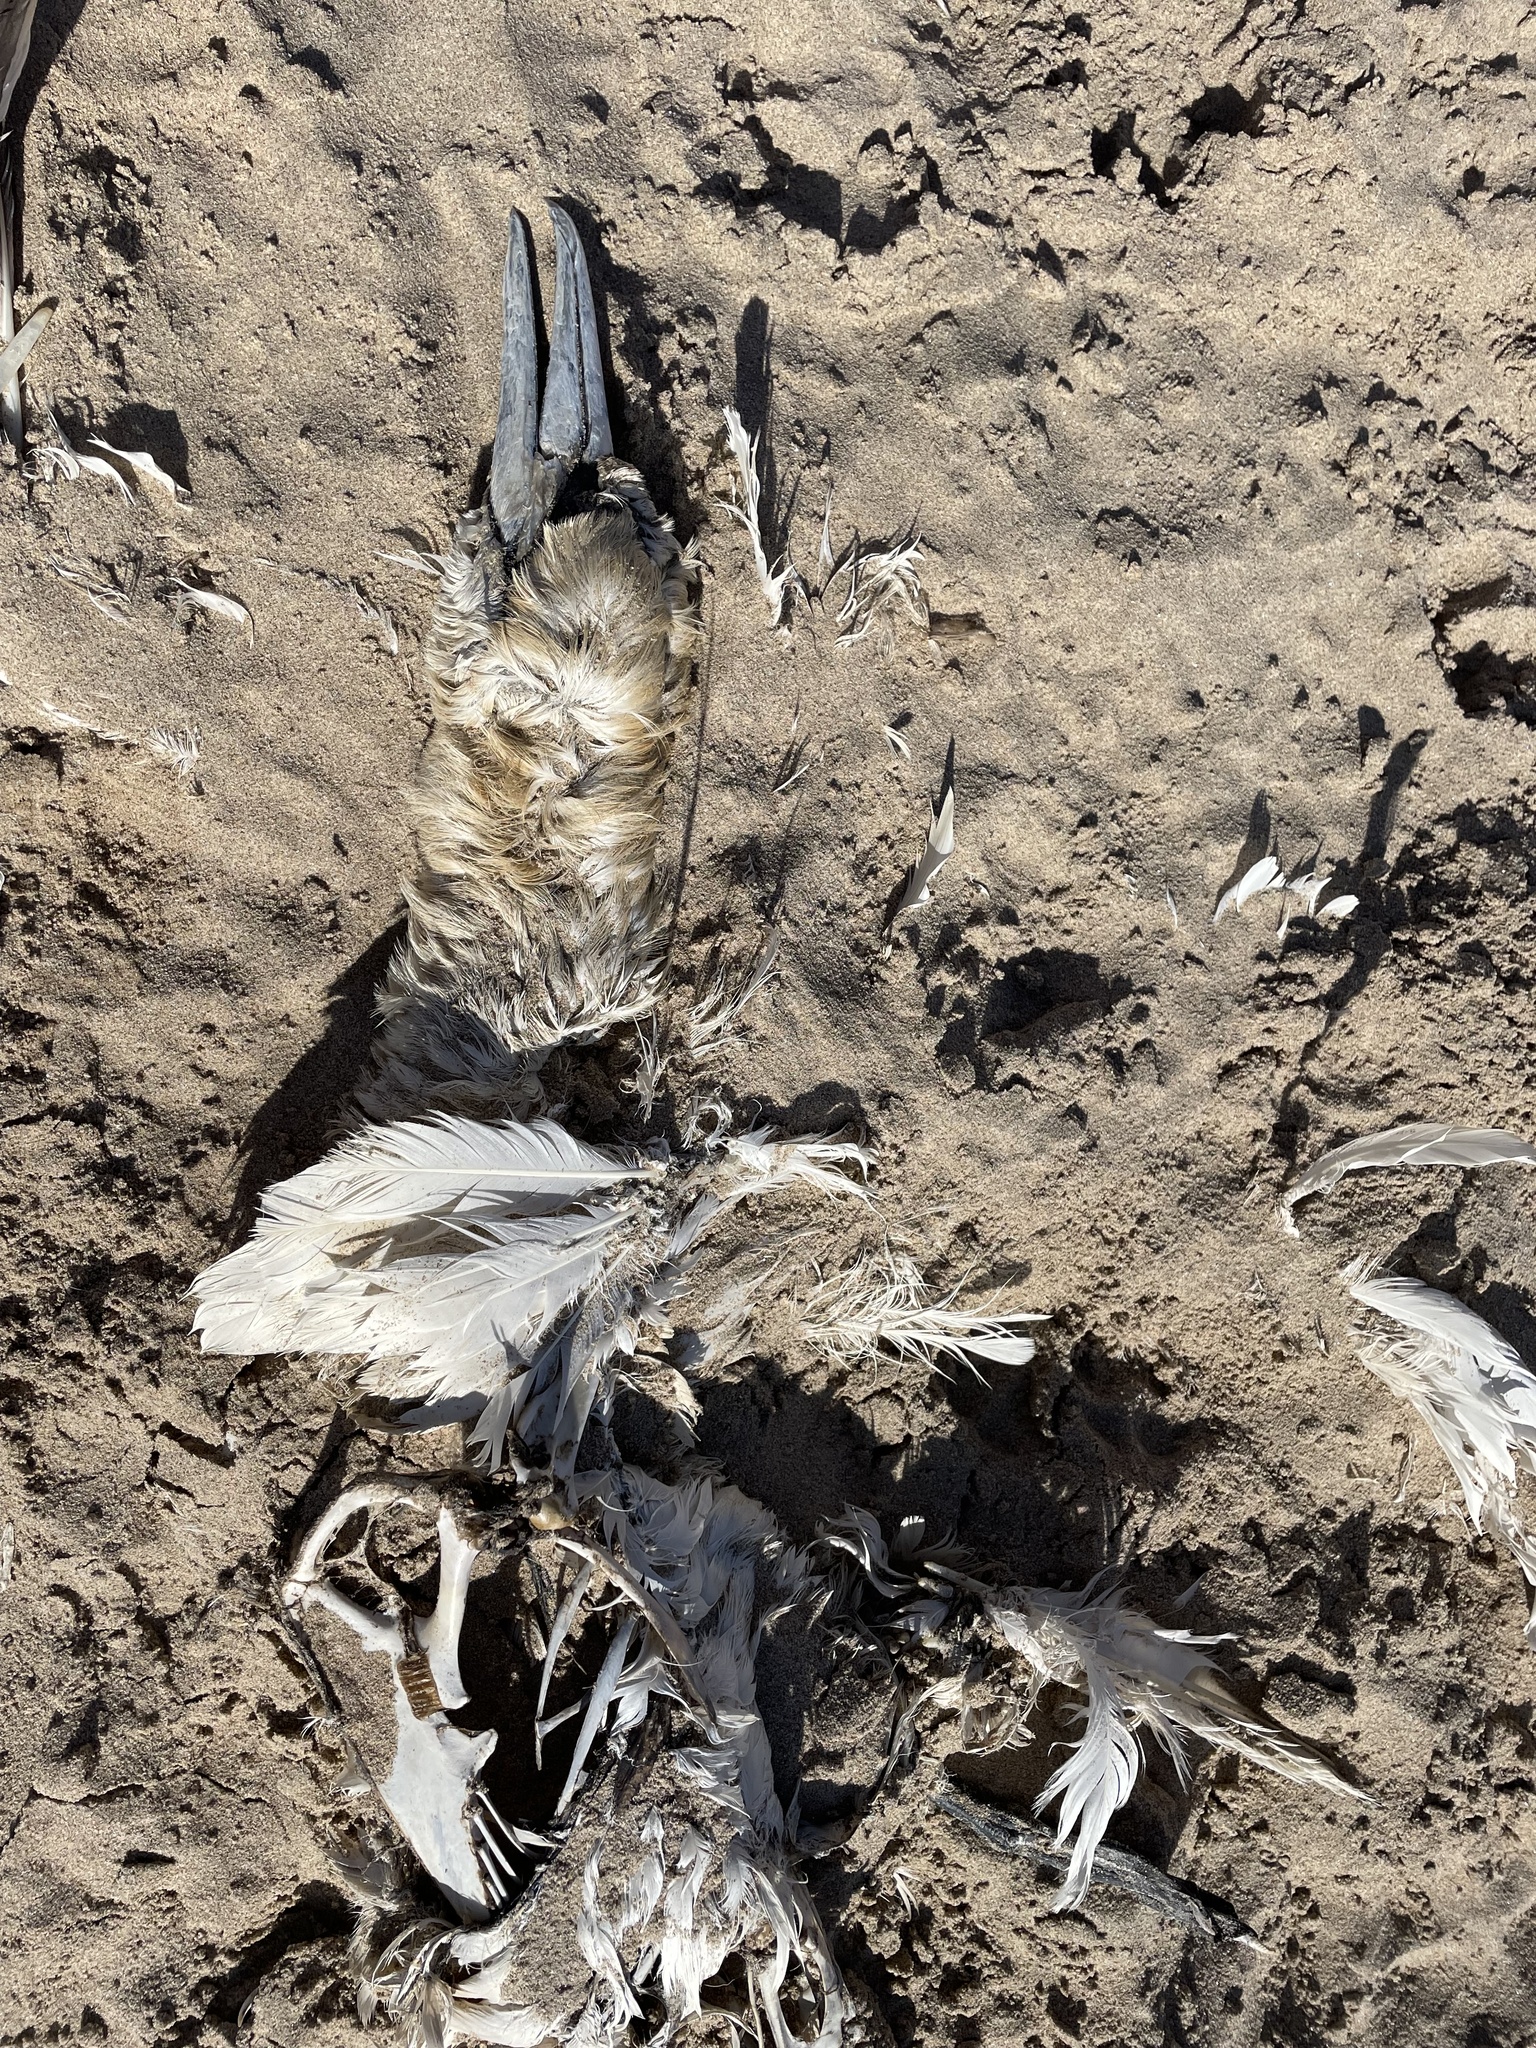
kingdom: Animalia
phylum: Chordata
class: Aves
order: Suliformes
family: Sulidae
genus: Morus
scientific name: Morus bassanus
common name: Northern gannet
